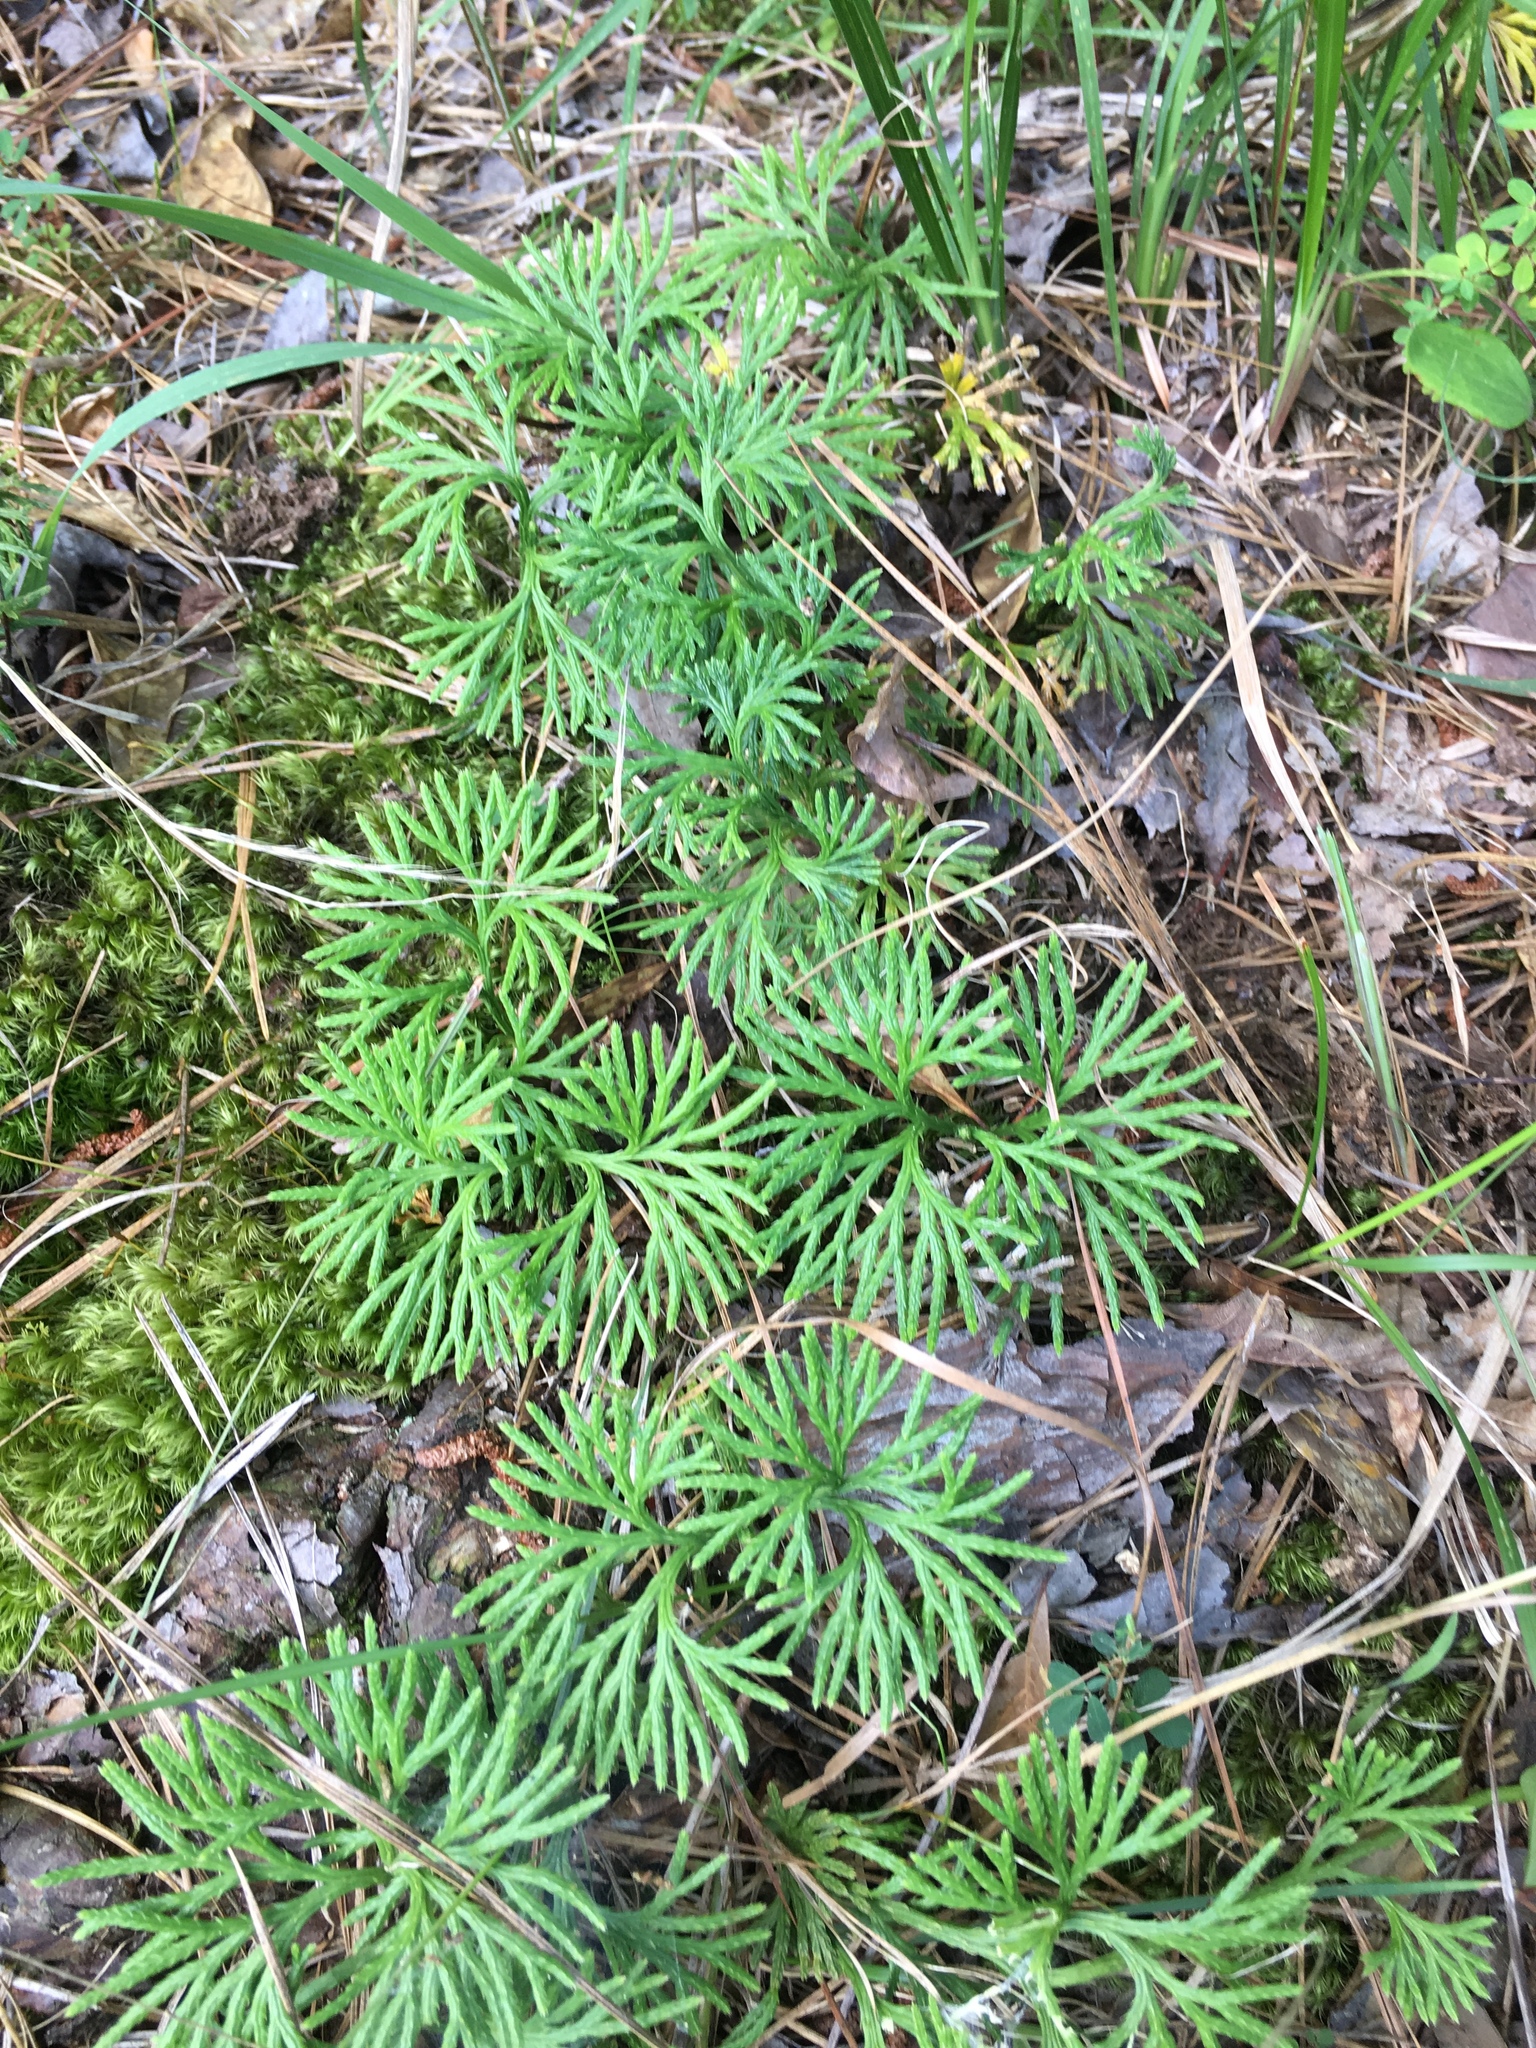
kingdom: Plantae
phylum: Tracheophyta
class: Lycopodiopsida
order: Lycopodiales
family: Lycopodiaceae
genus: Diphasiastrum
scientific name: Diphasiastrum digitatum
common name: Southern running-pine
